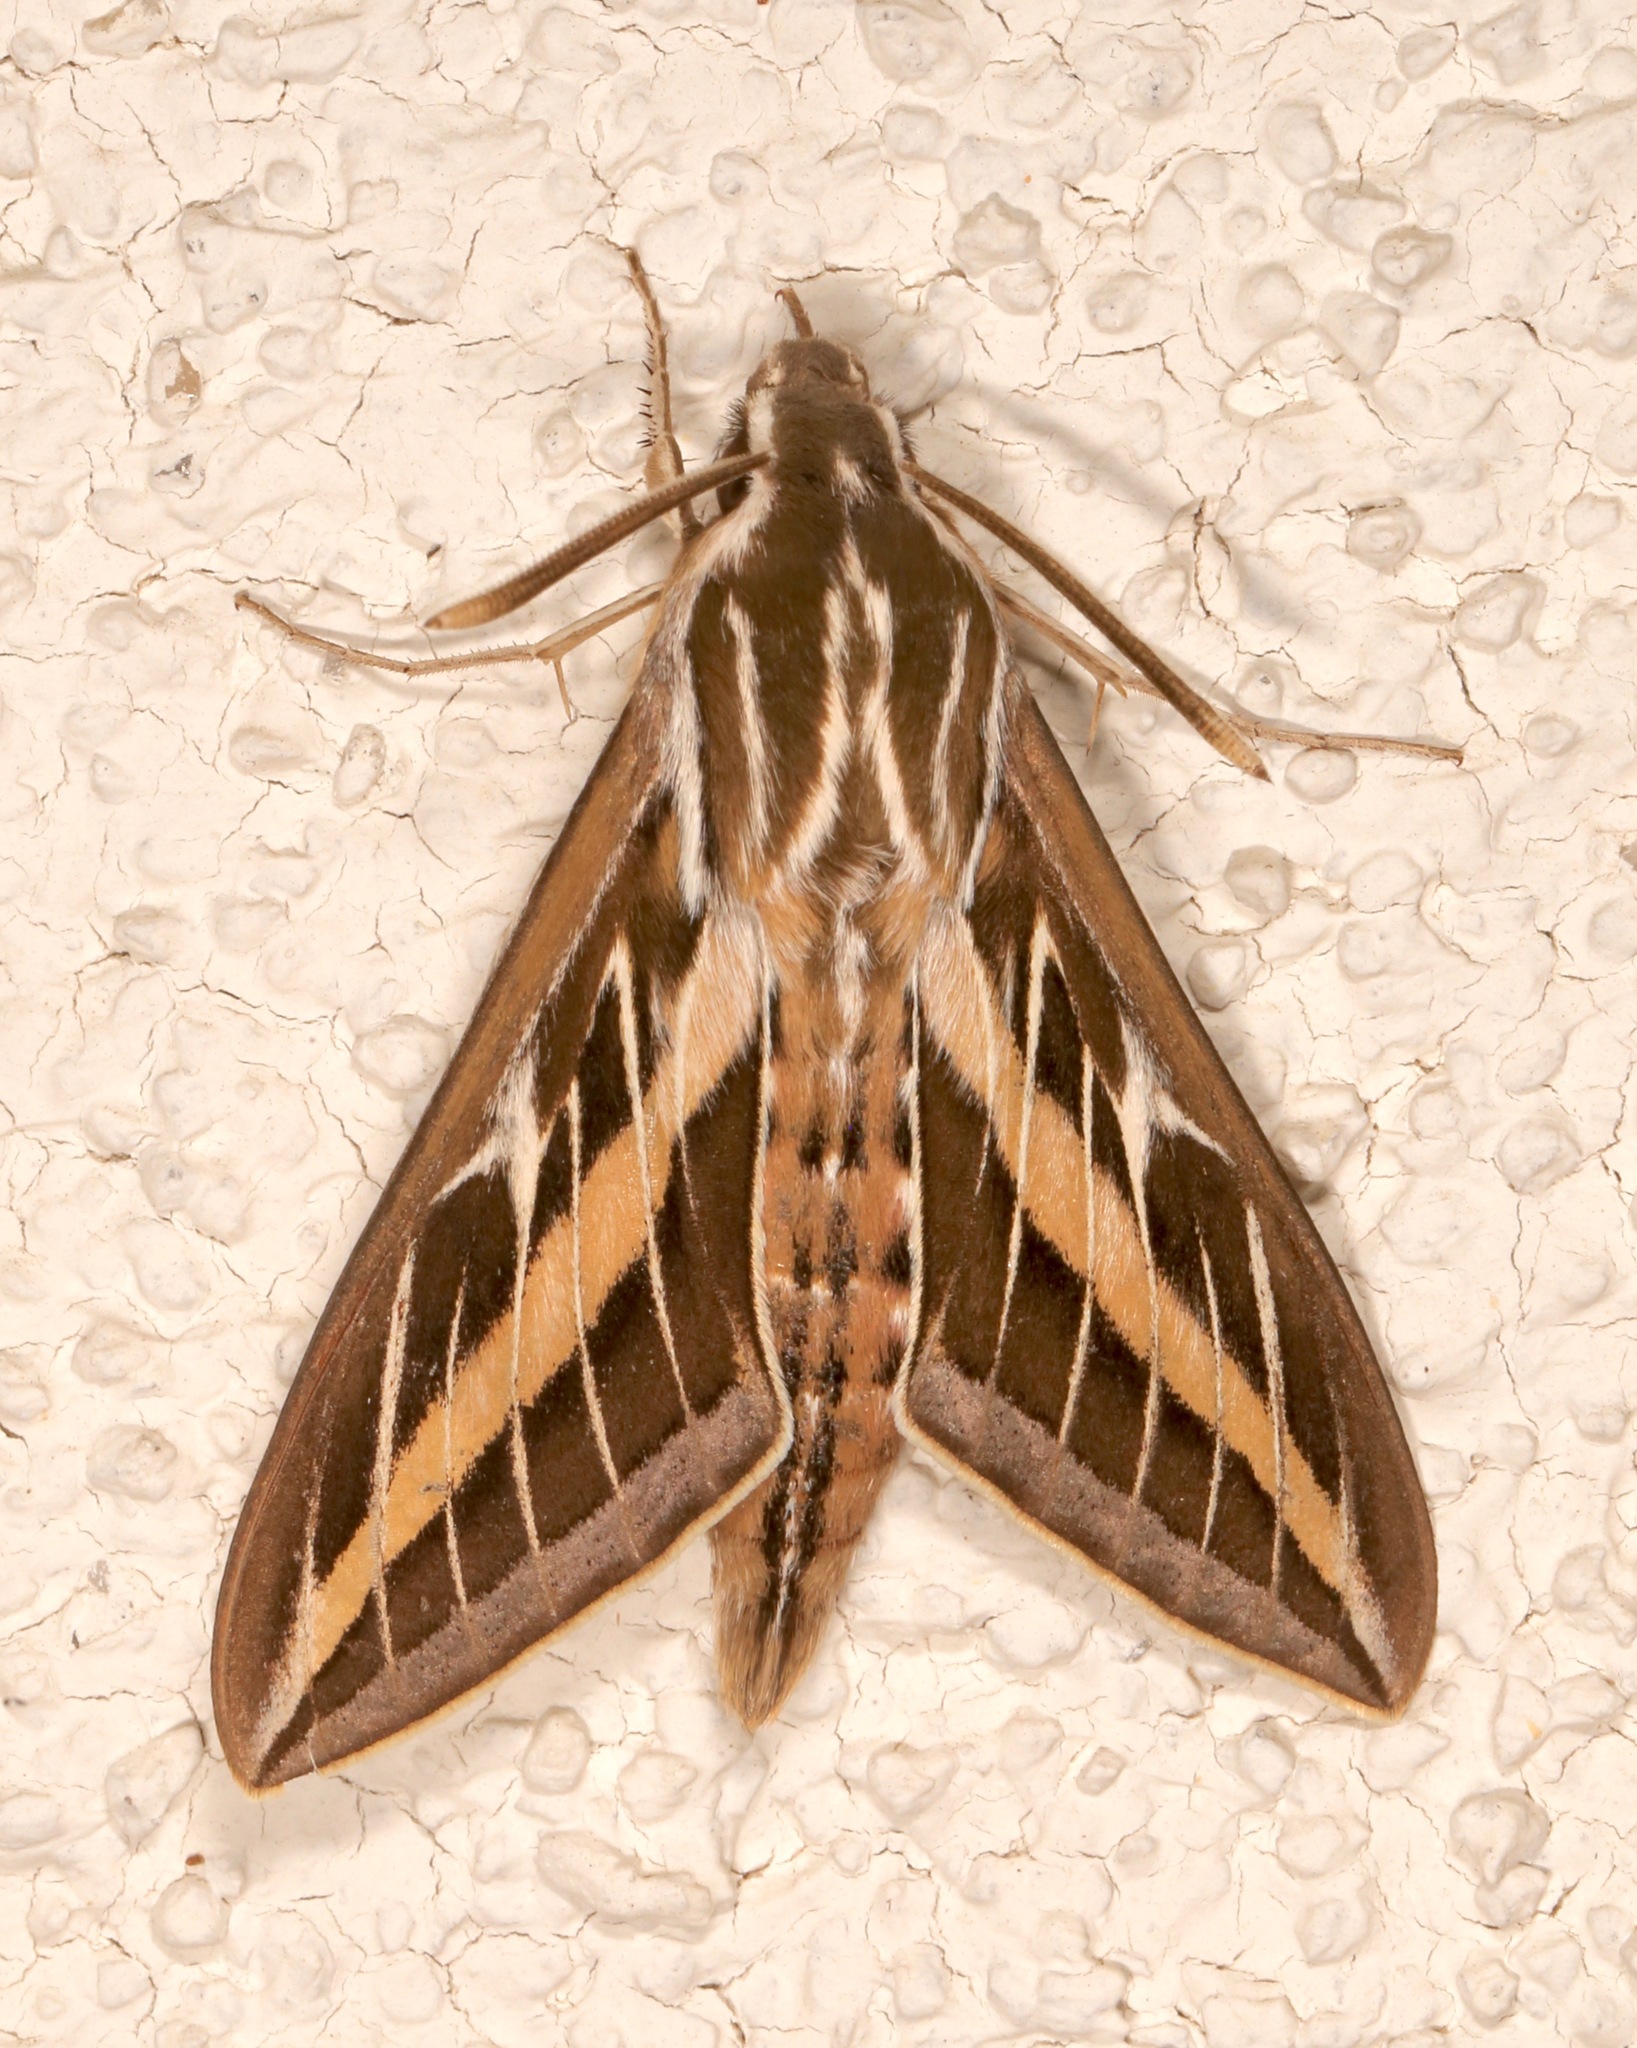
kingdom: Animalia
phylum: Arthropoda
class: Insecta
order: Lepidoptera
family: Sphingidae
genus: Hyles
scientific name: Hyles lineata
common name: White-lined sphinx
